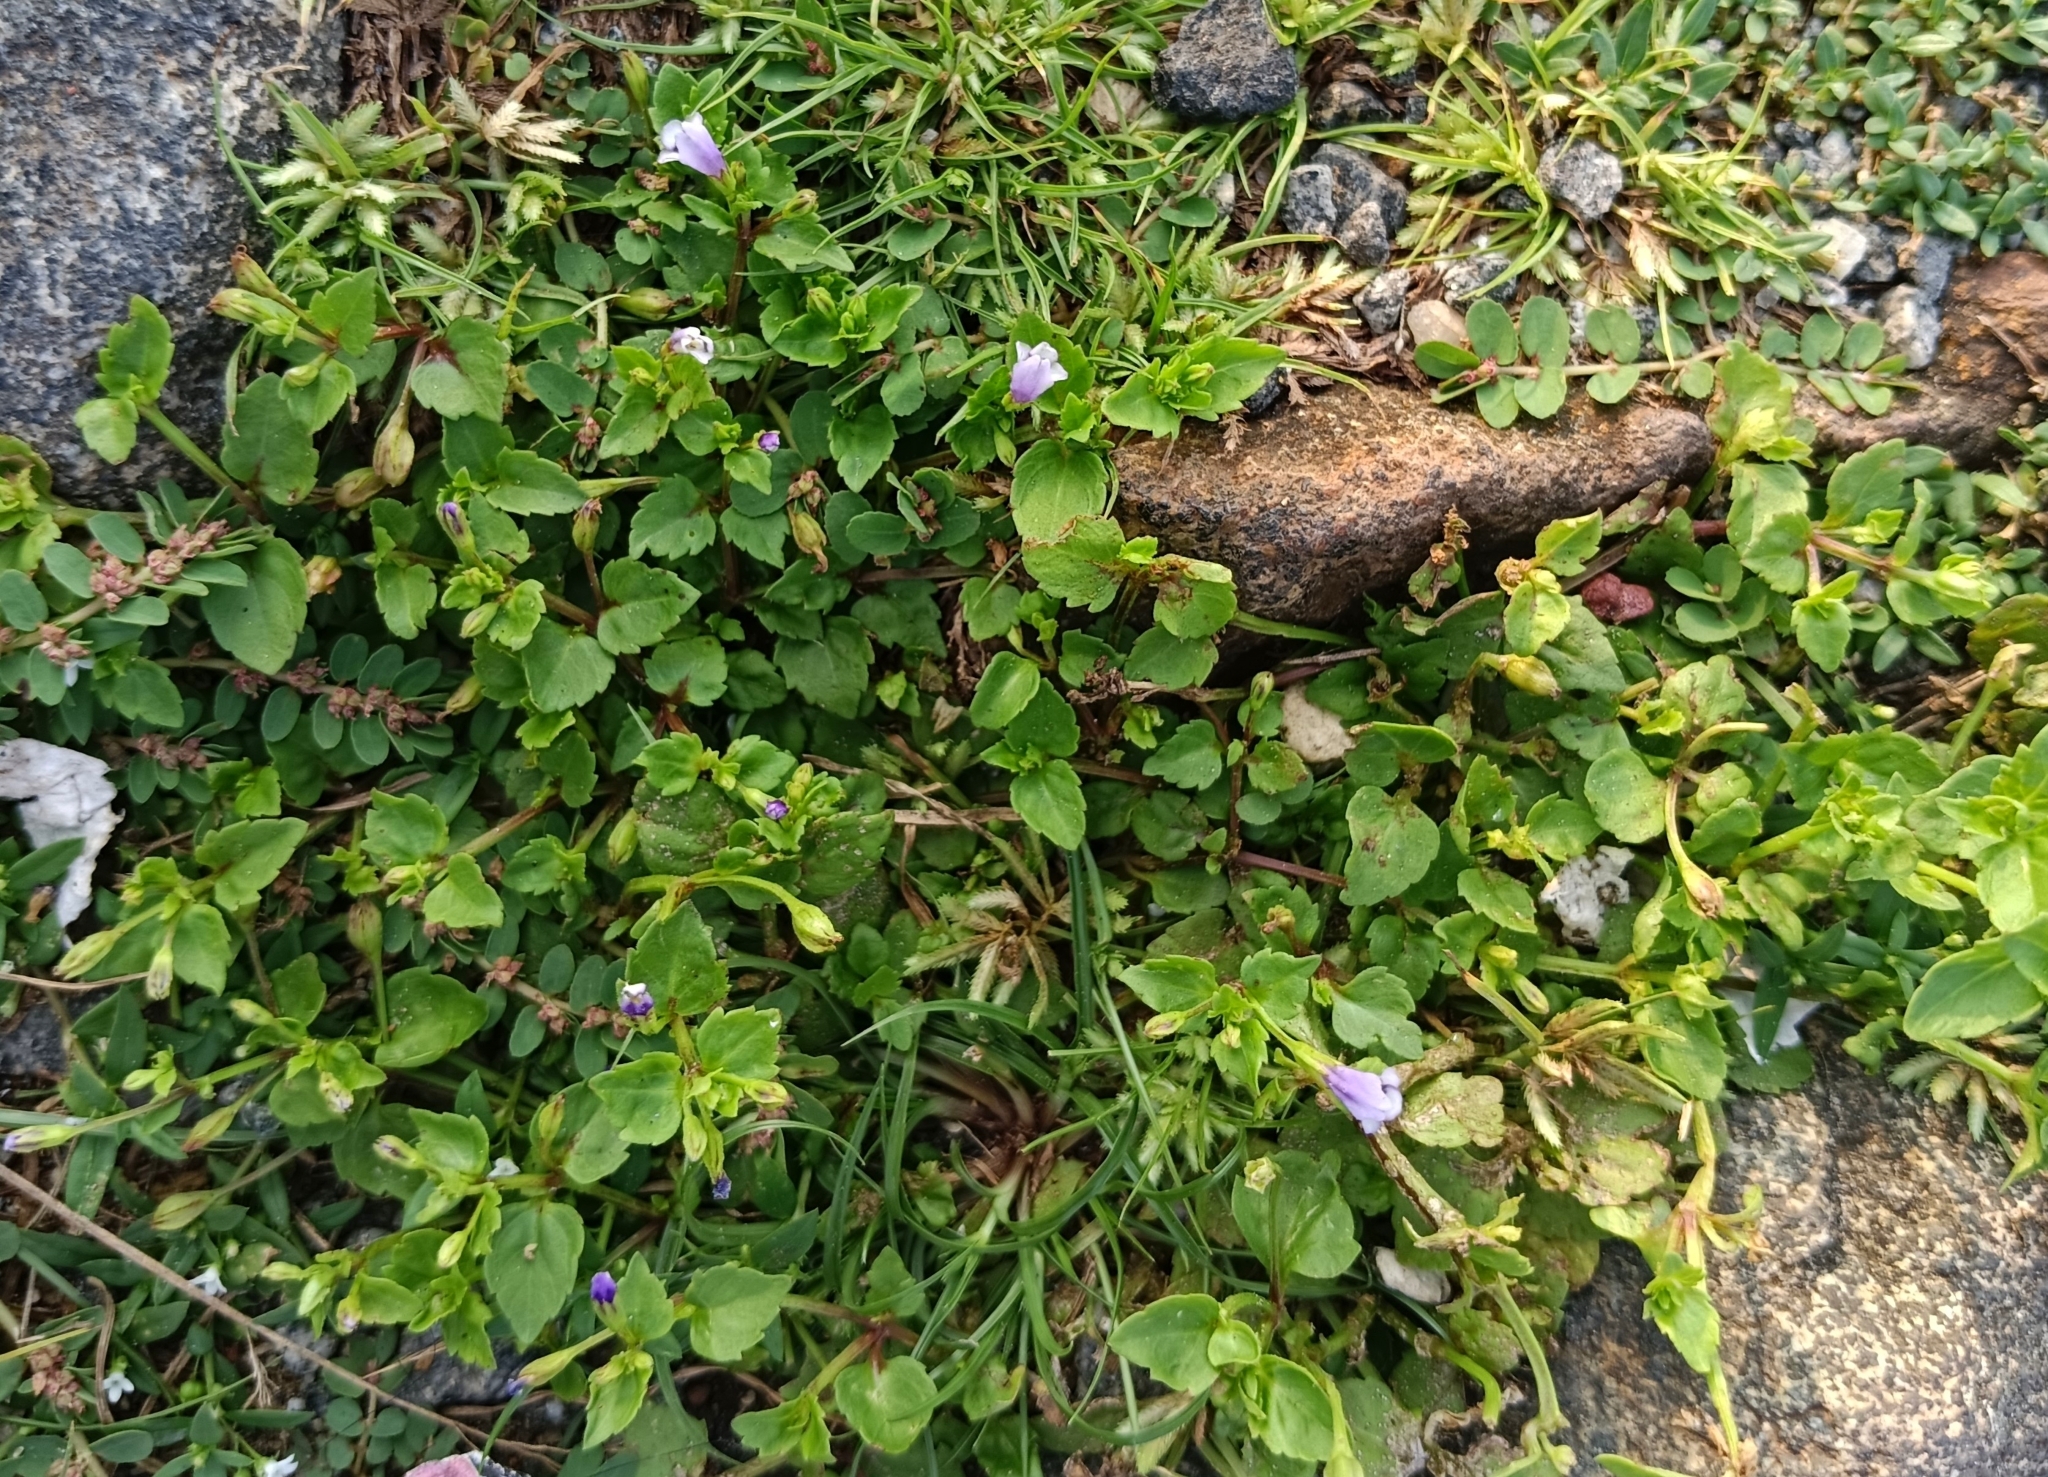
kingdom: Plantae
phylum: Tracheophyta
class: Magnoliopsida
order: Lamiales
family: Linderniaceae
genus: Torenia
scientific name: Torenia crustacea
